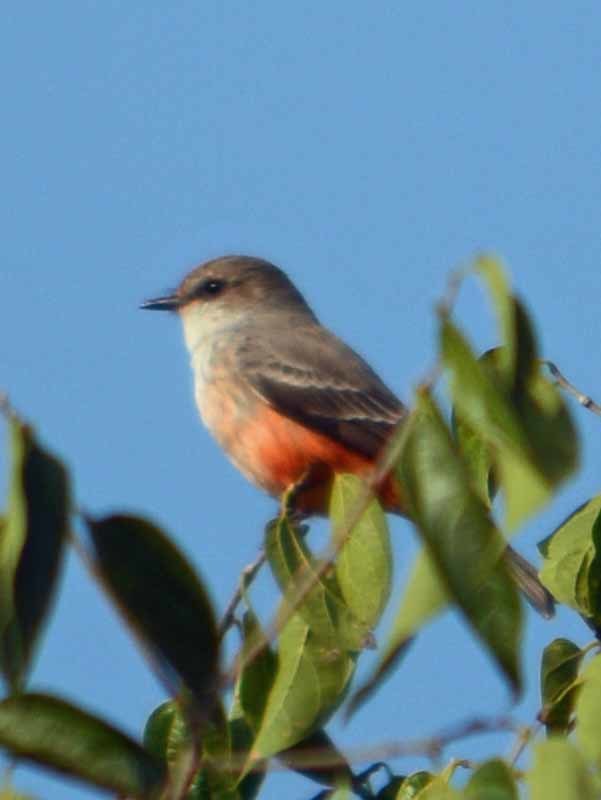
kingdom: Animalia
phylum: Chordata
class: Aves
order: Passeriformes
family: Tyrannidae
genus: Pyrocephalus
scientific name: Pyrocephalus rubinus
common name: Vermilion flycatcher
